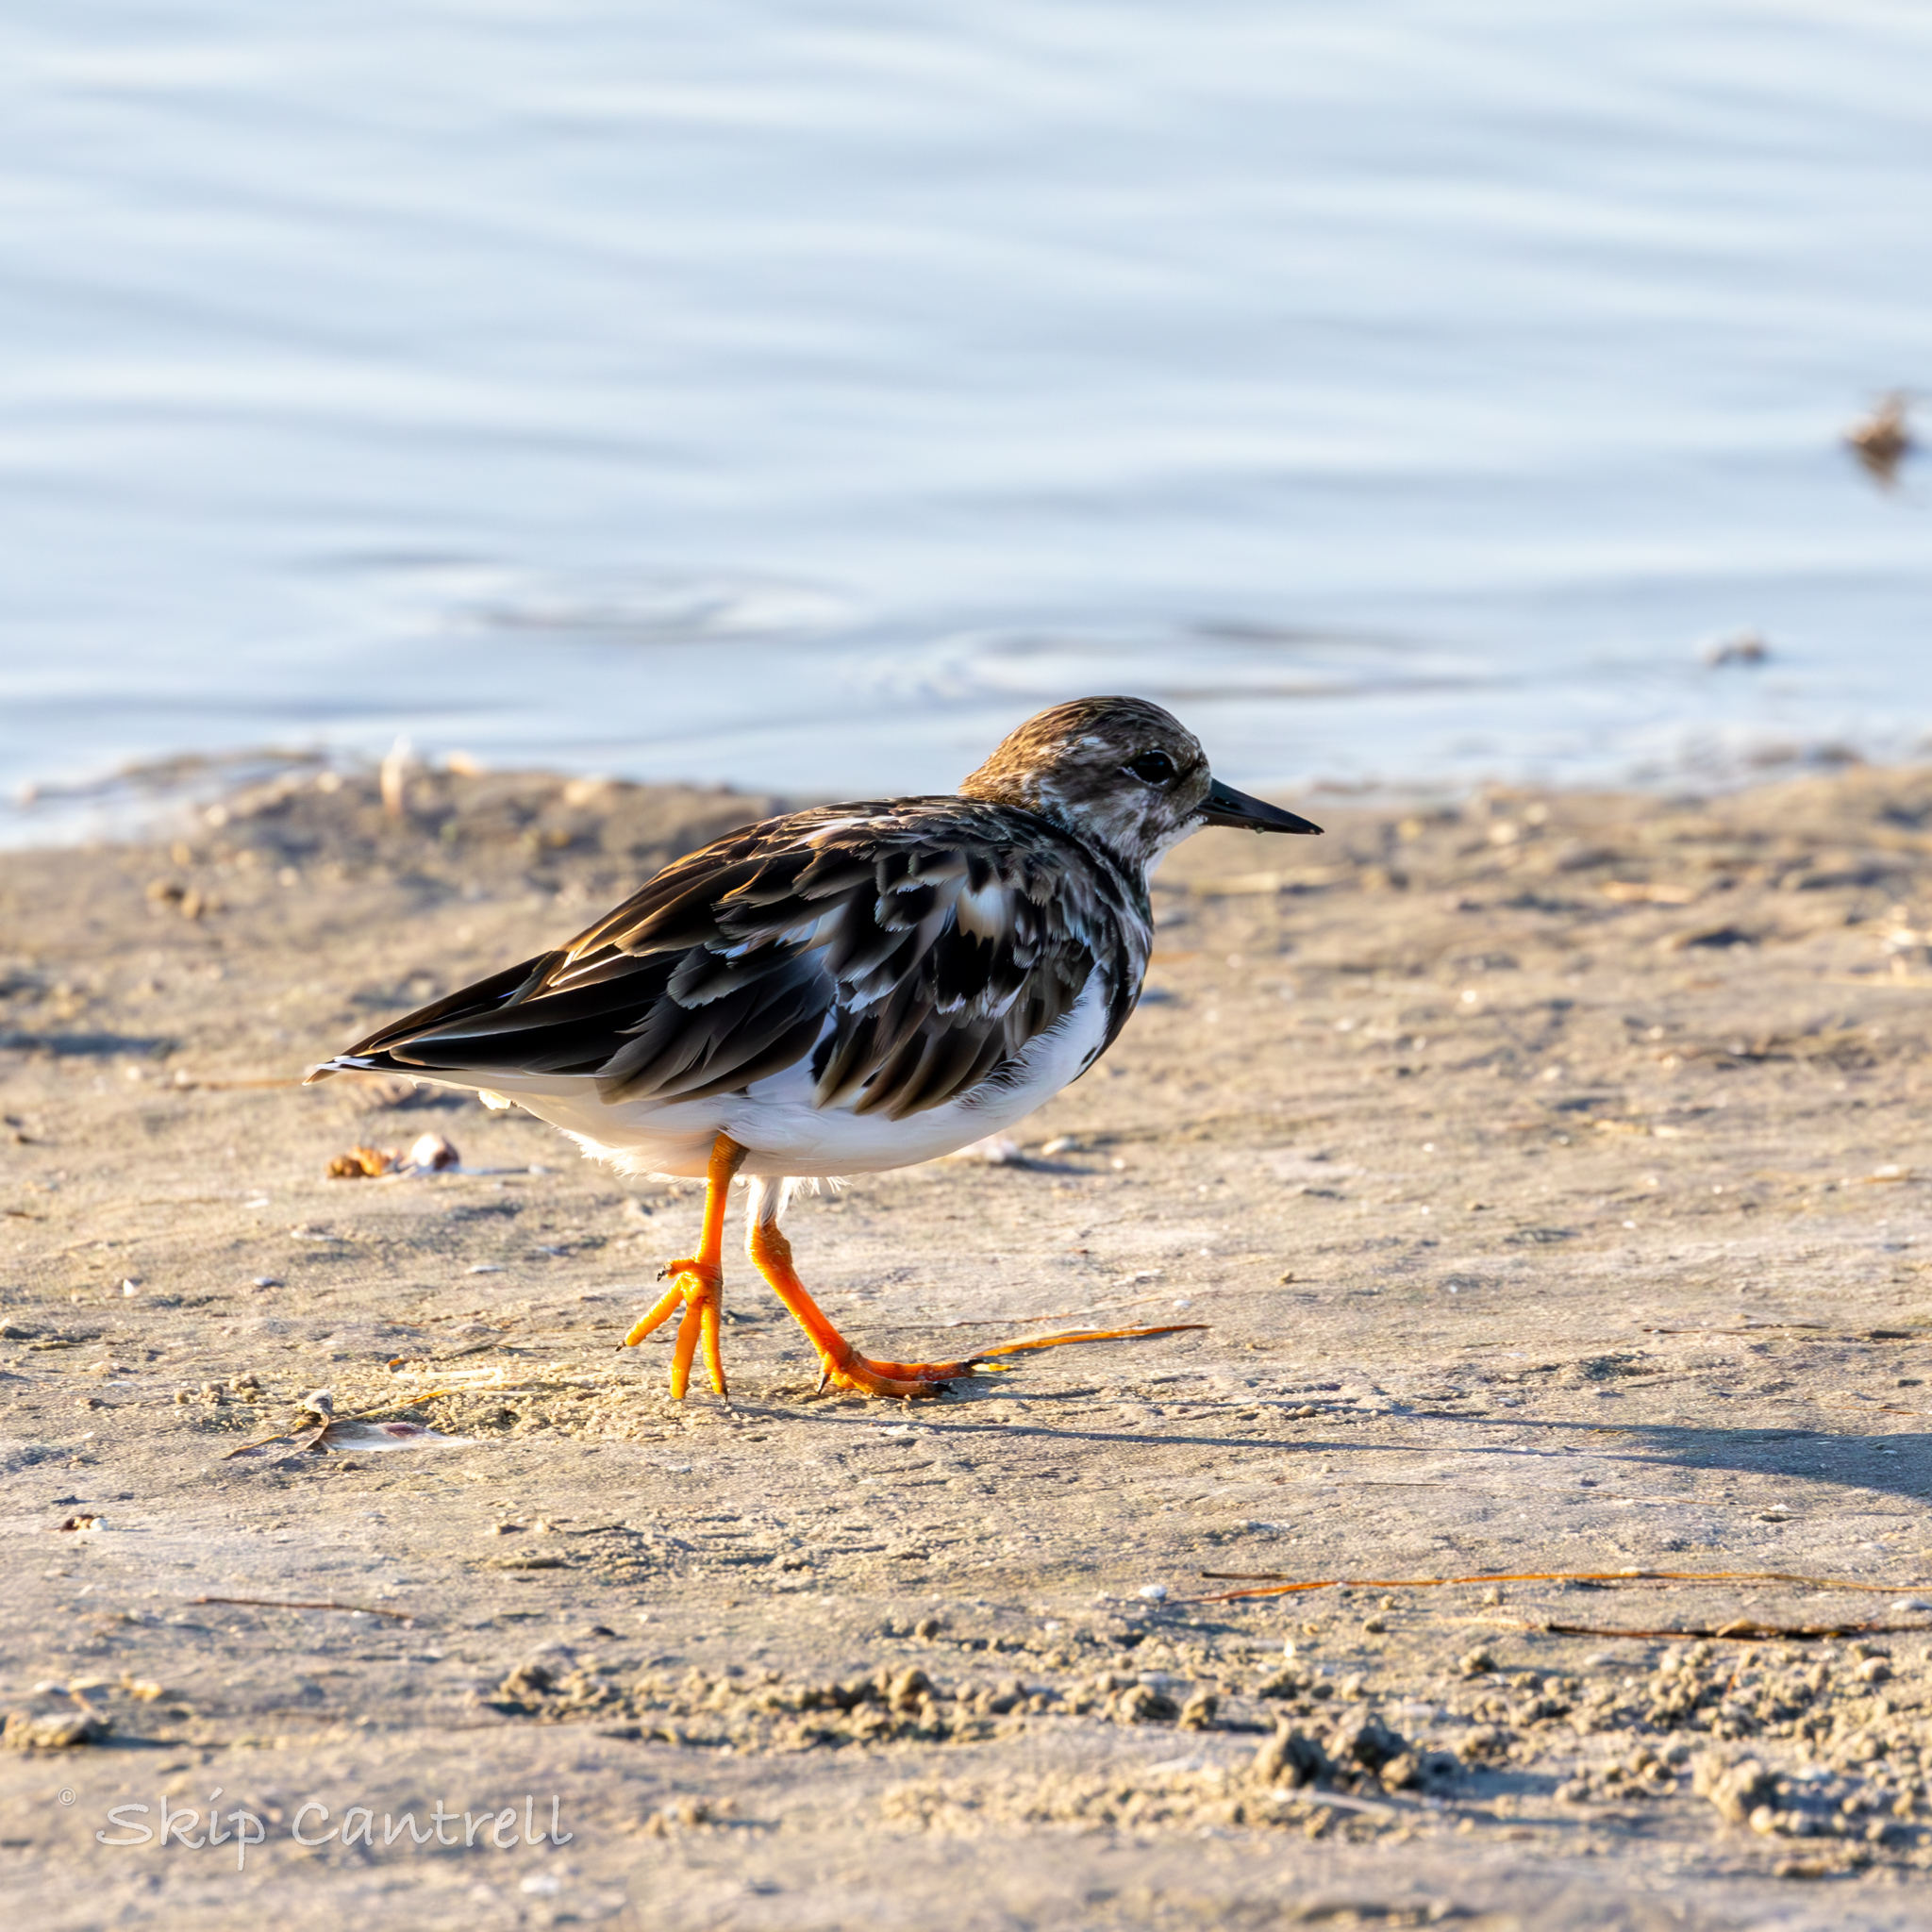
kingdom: Animalia
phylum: Chordata
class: Aves
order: Charadriiformes
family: Scolopacidae
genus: Arenaria
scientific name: Arenaria interpres
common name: Ruddy turnstone
